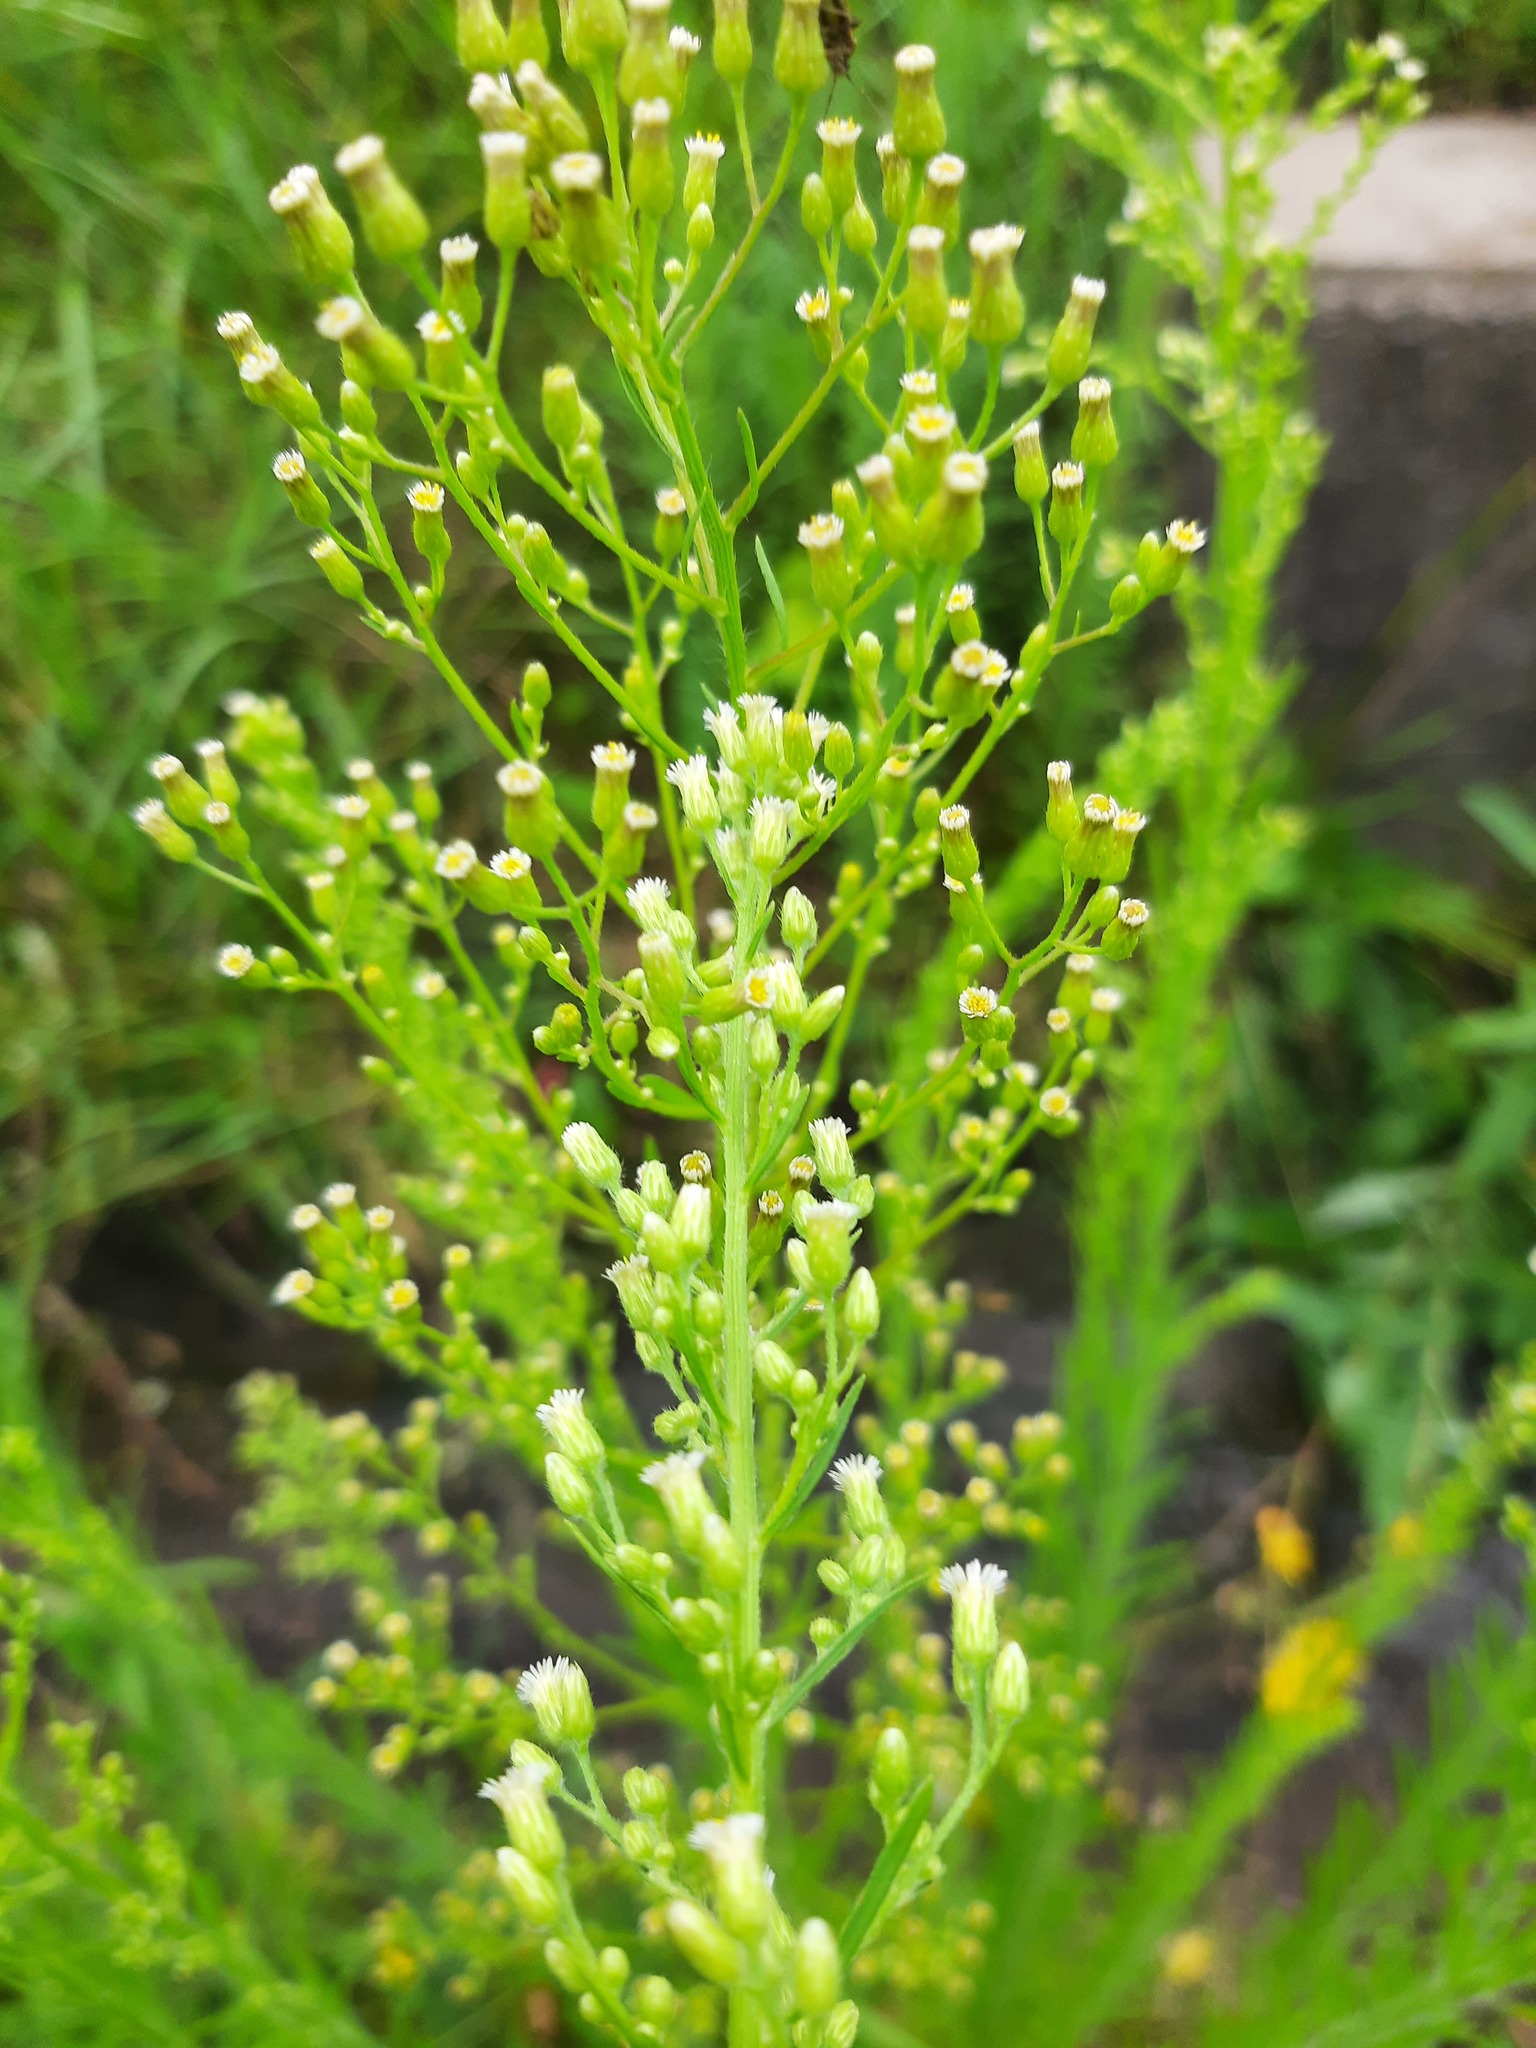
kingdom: Plantae
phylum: Tracheophyta
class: Magnoliopsida
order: Asterales
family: Asteraceae
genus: Erigeron
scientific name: Erigeron canadensis
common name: Canadian fleabane
